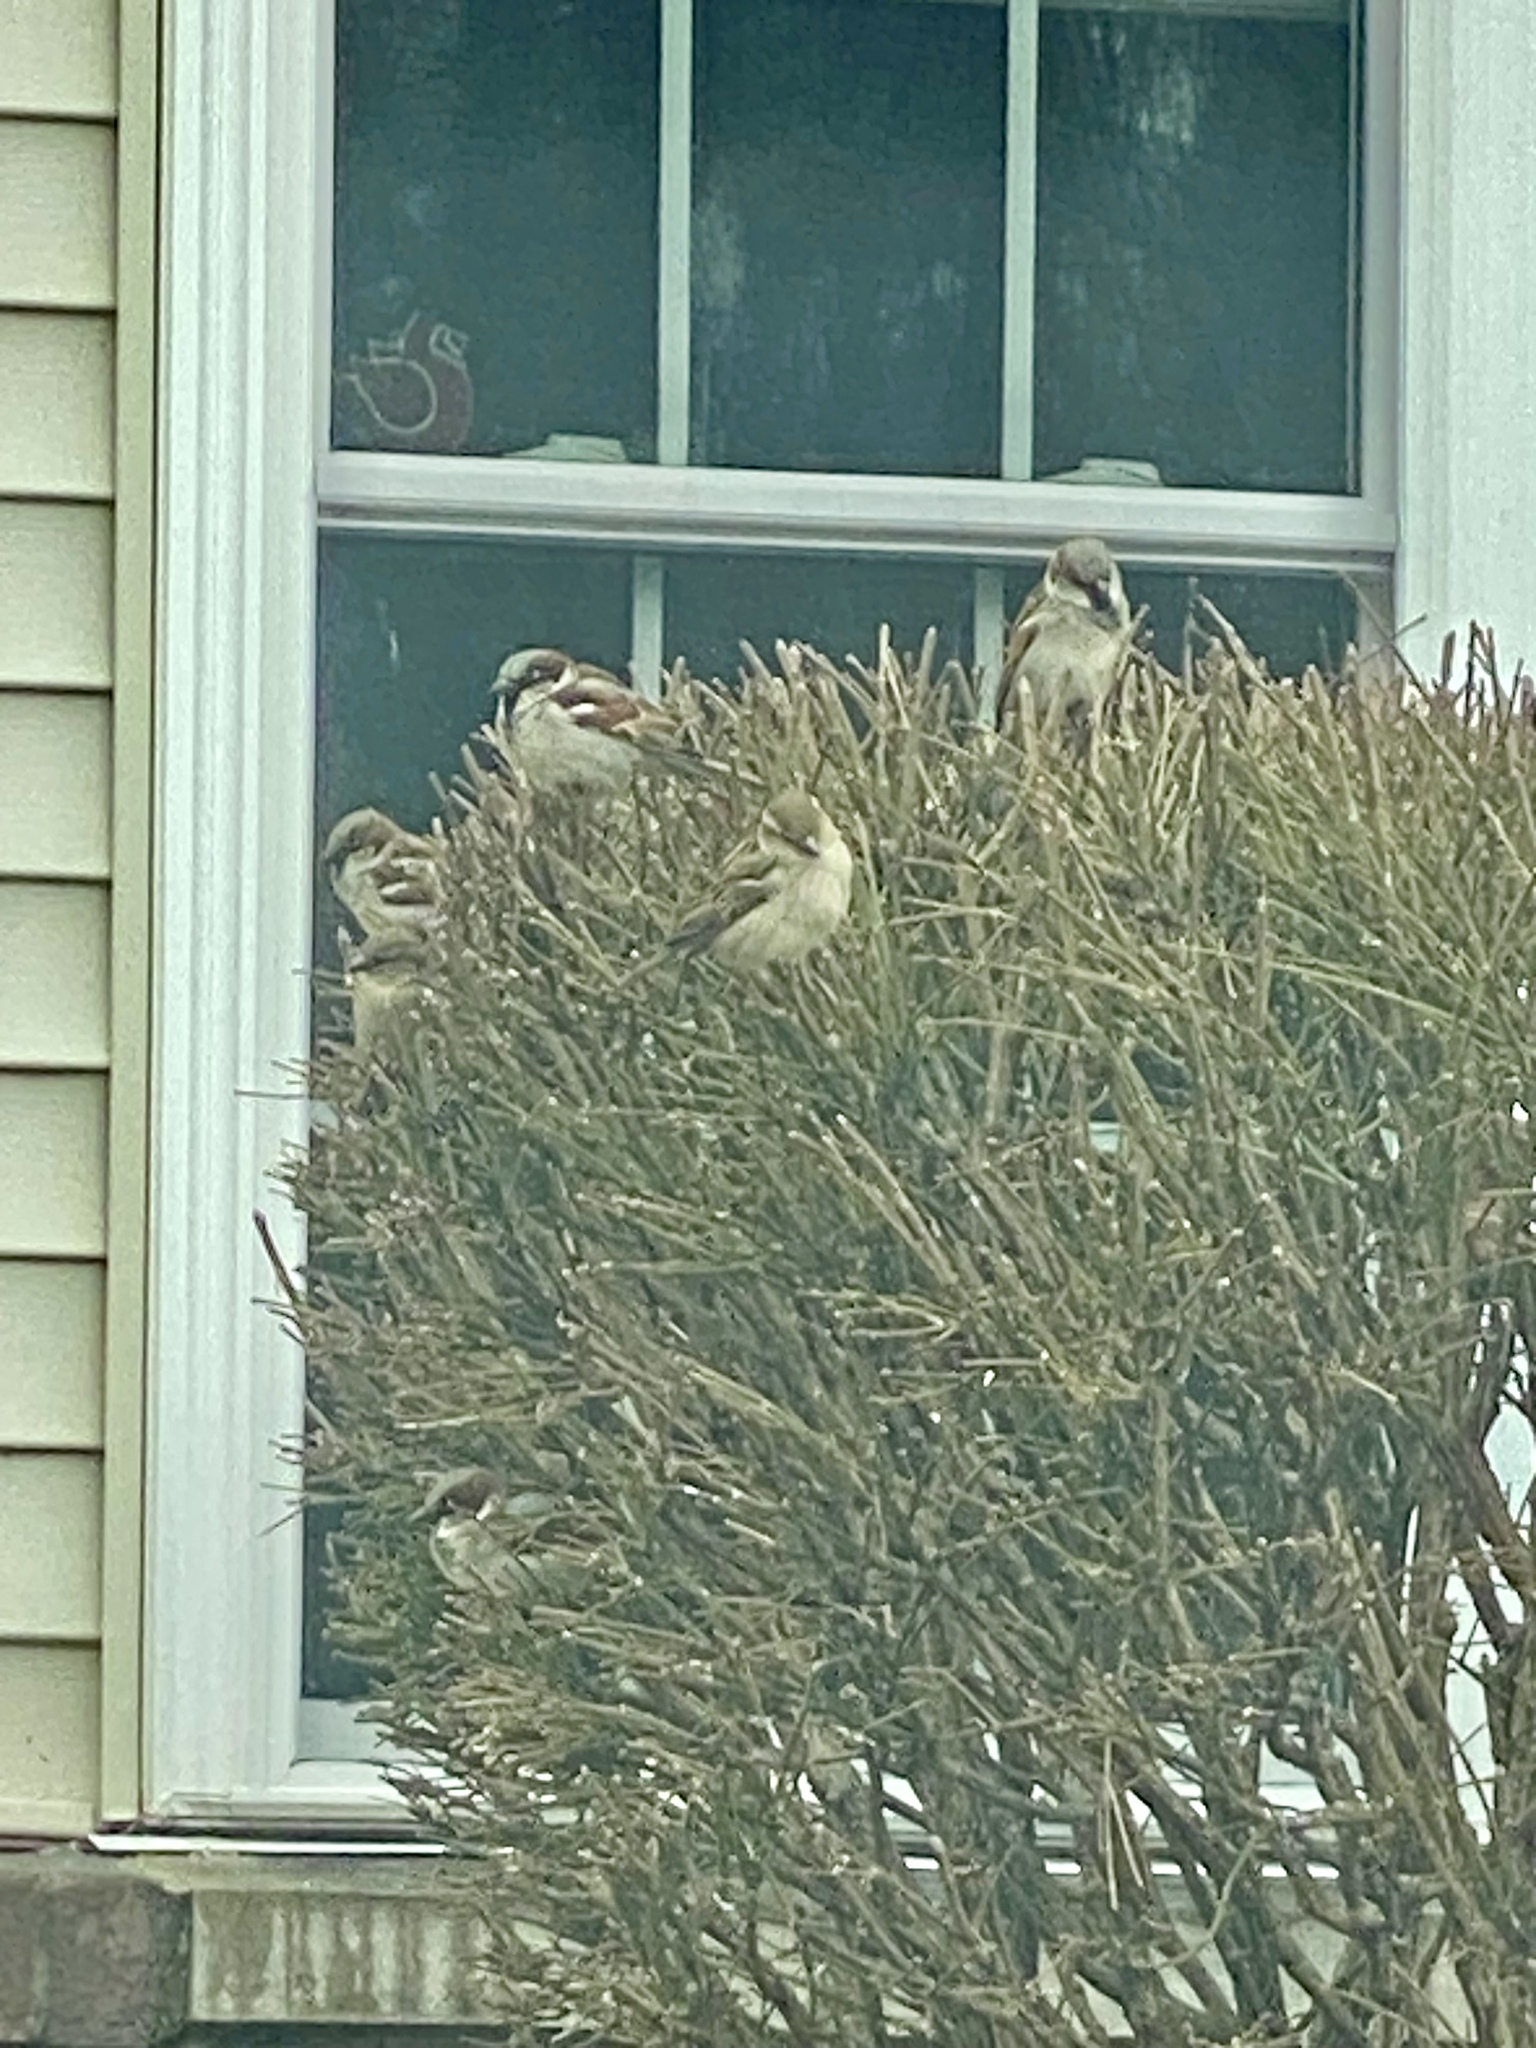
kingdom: Animalia
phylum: Chordata
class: Aves
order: Passeriformes
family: Passeridae
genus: Passer
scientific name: Passer domesticus
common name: House sparrow
